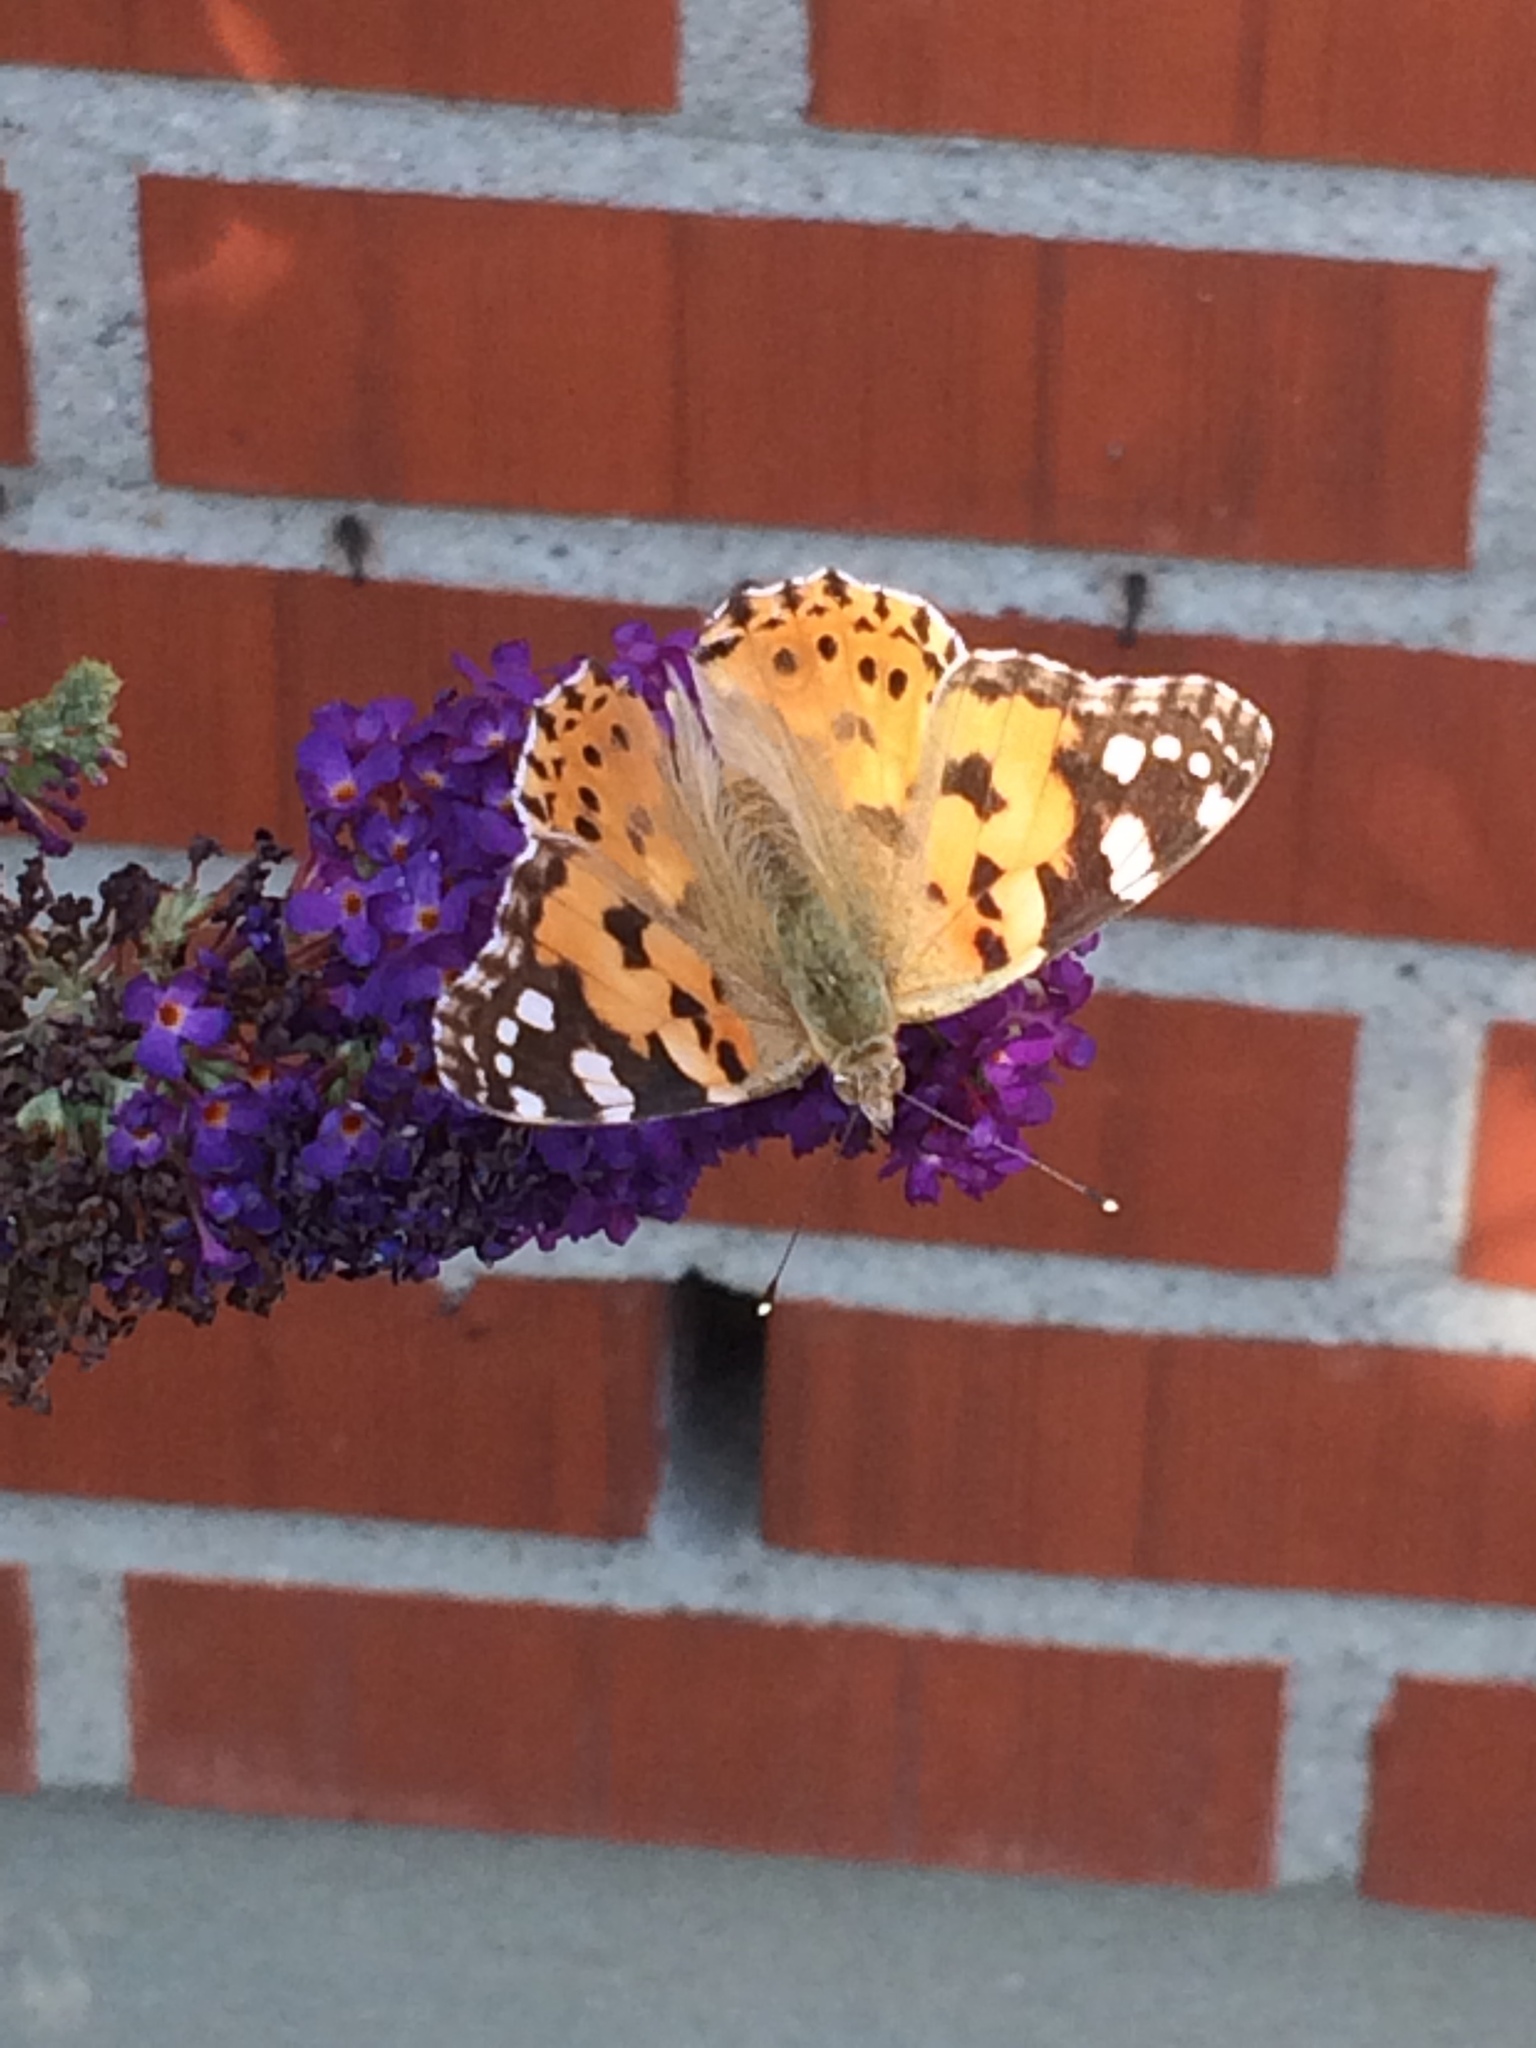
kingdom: Animalia
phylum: Arthropoda
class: Insecta
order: Lepidoptera
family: Nymphalidae
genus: Vanessa
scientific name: Vanessa cardui
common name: Painted lady
